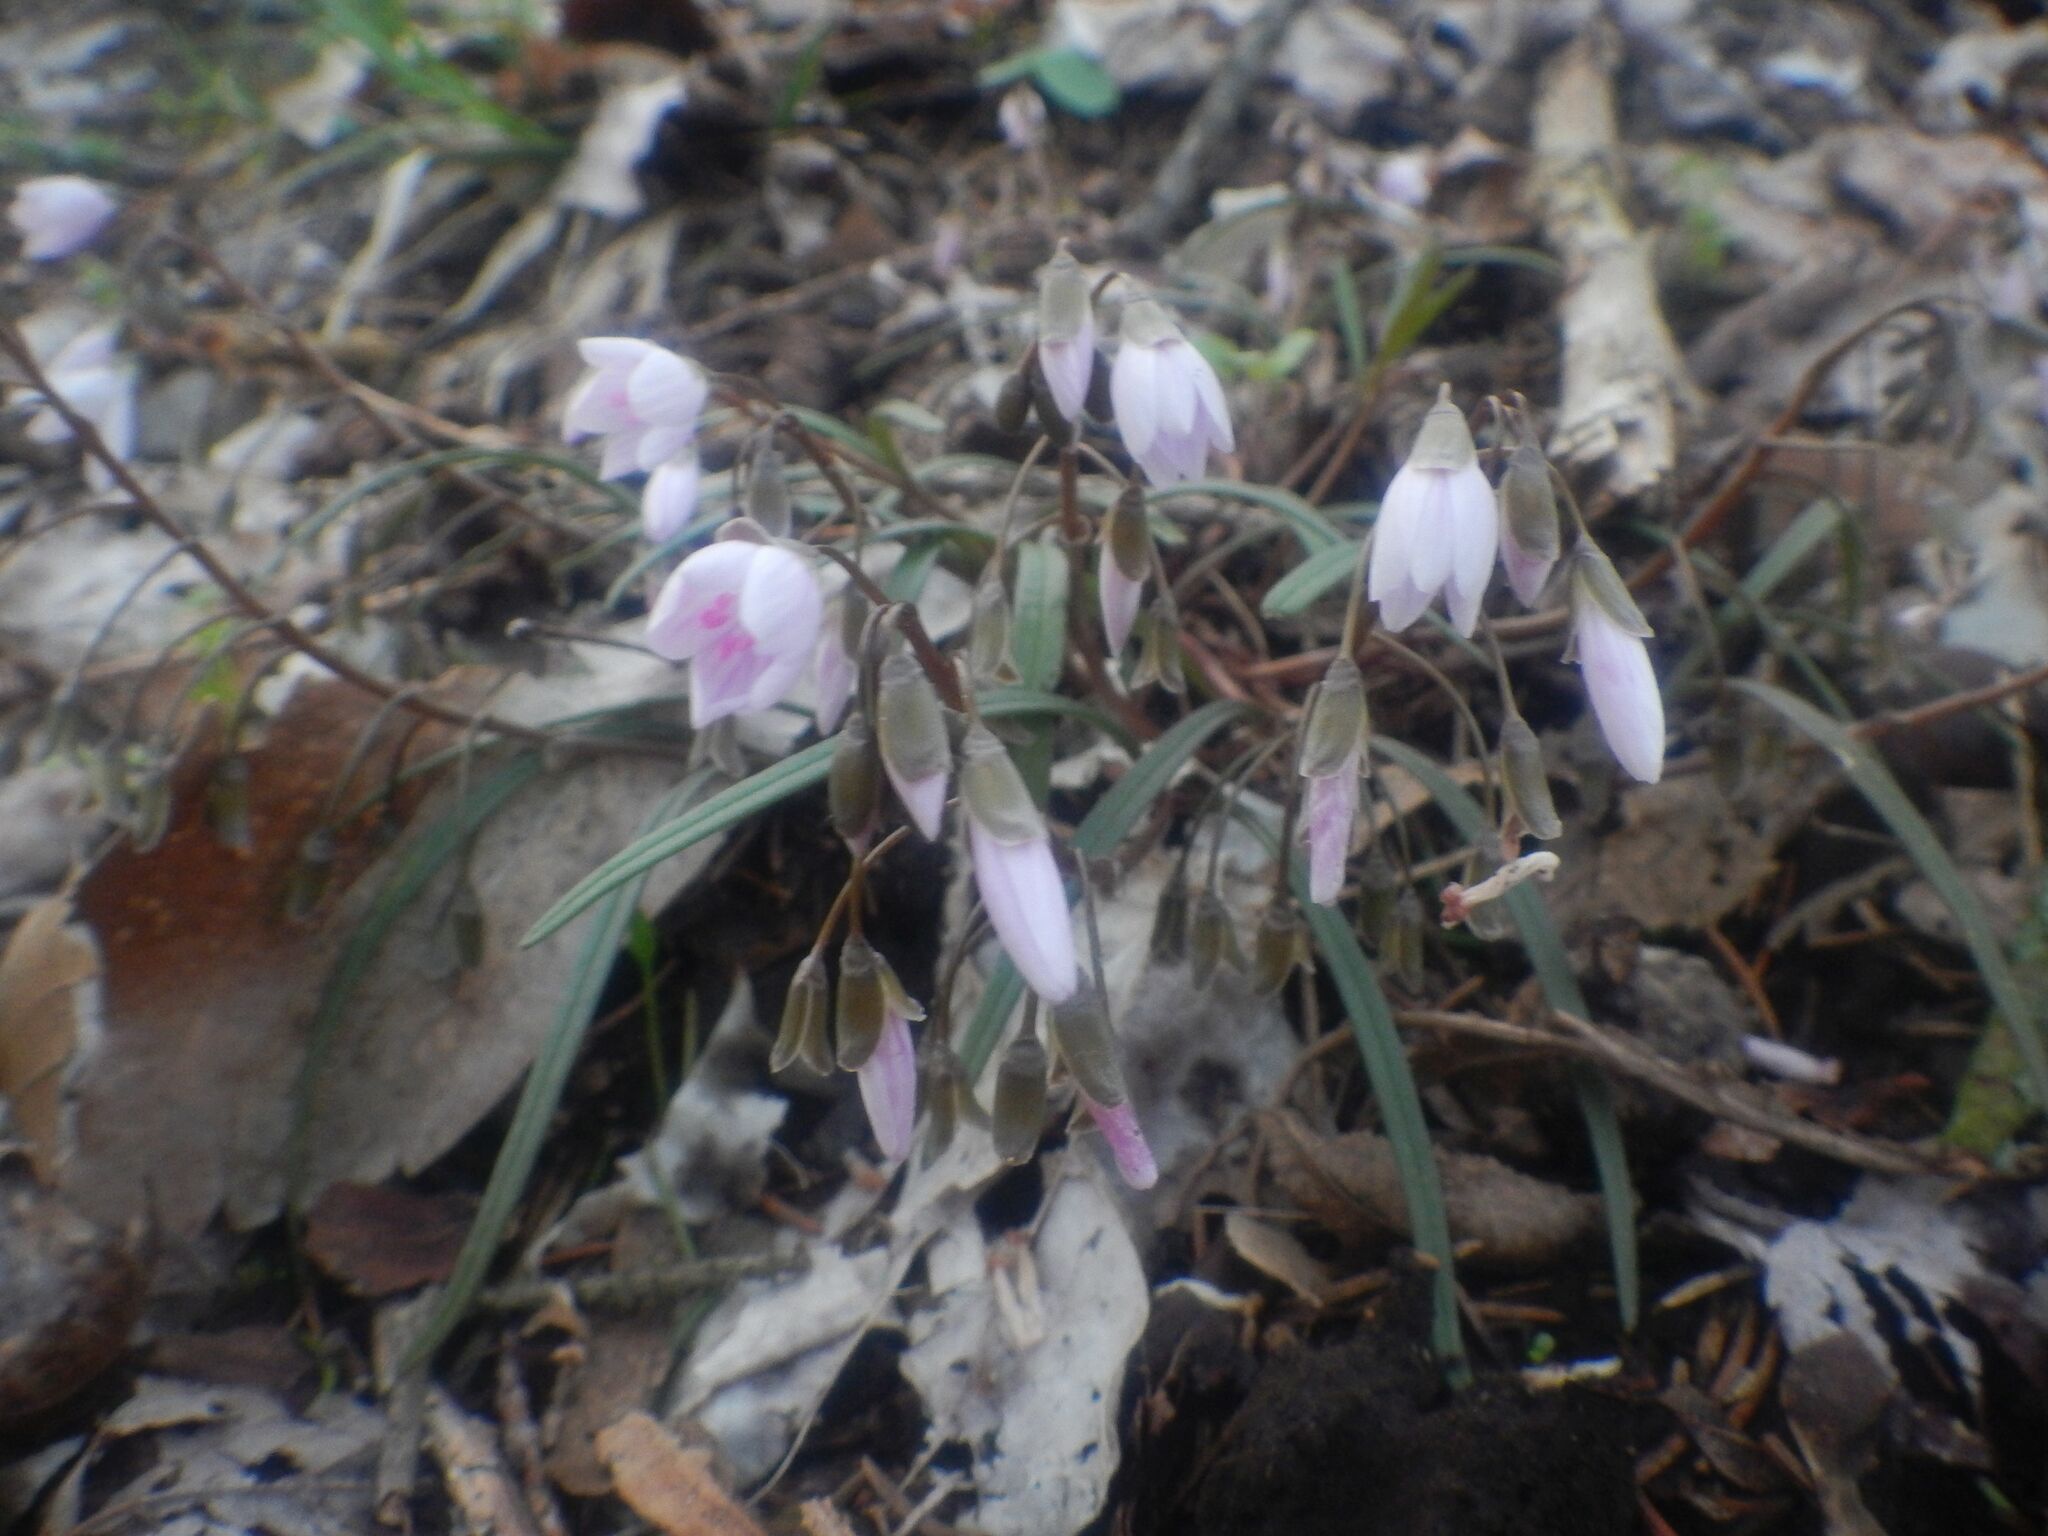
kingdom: Plantae
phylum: Tracheophyta
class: Magnoliopsida
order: Caryophyllales
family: Montiaceae
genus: Claytonia
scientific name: Claytonia virginica
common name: Virginia springbeauty
